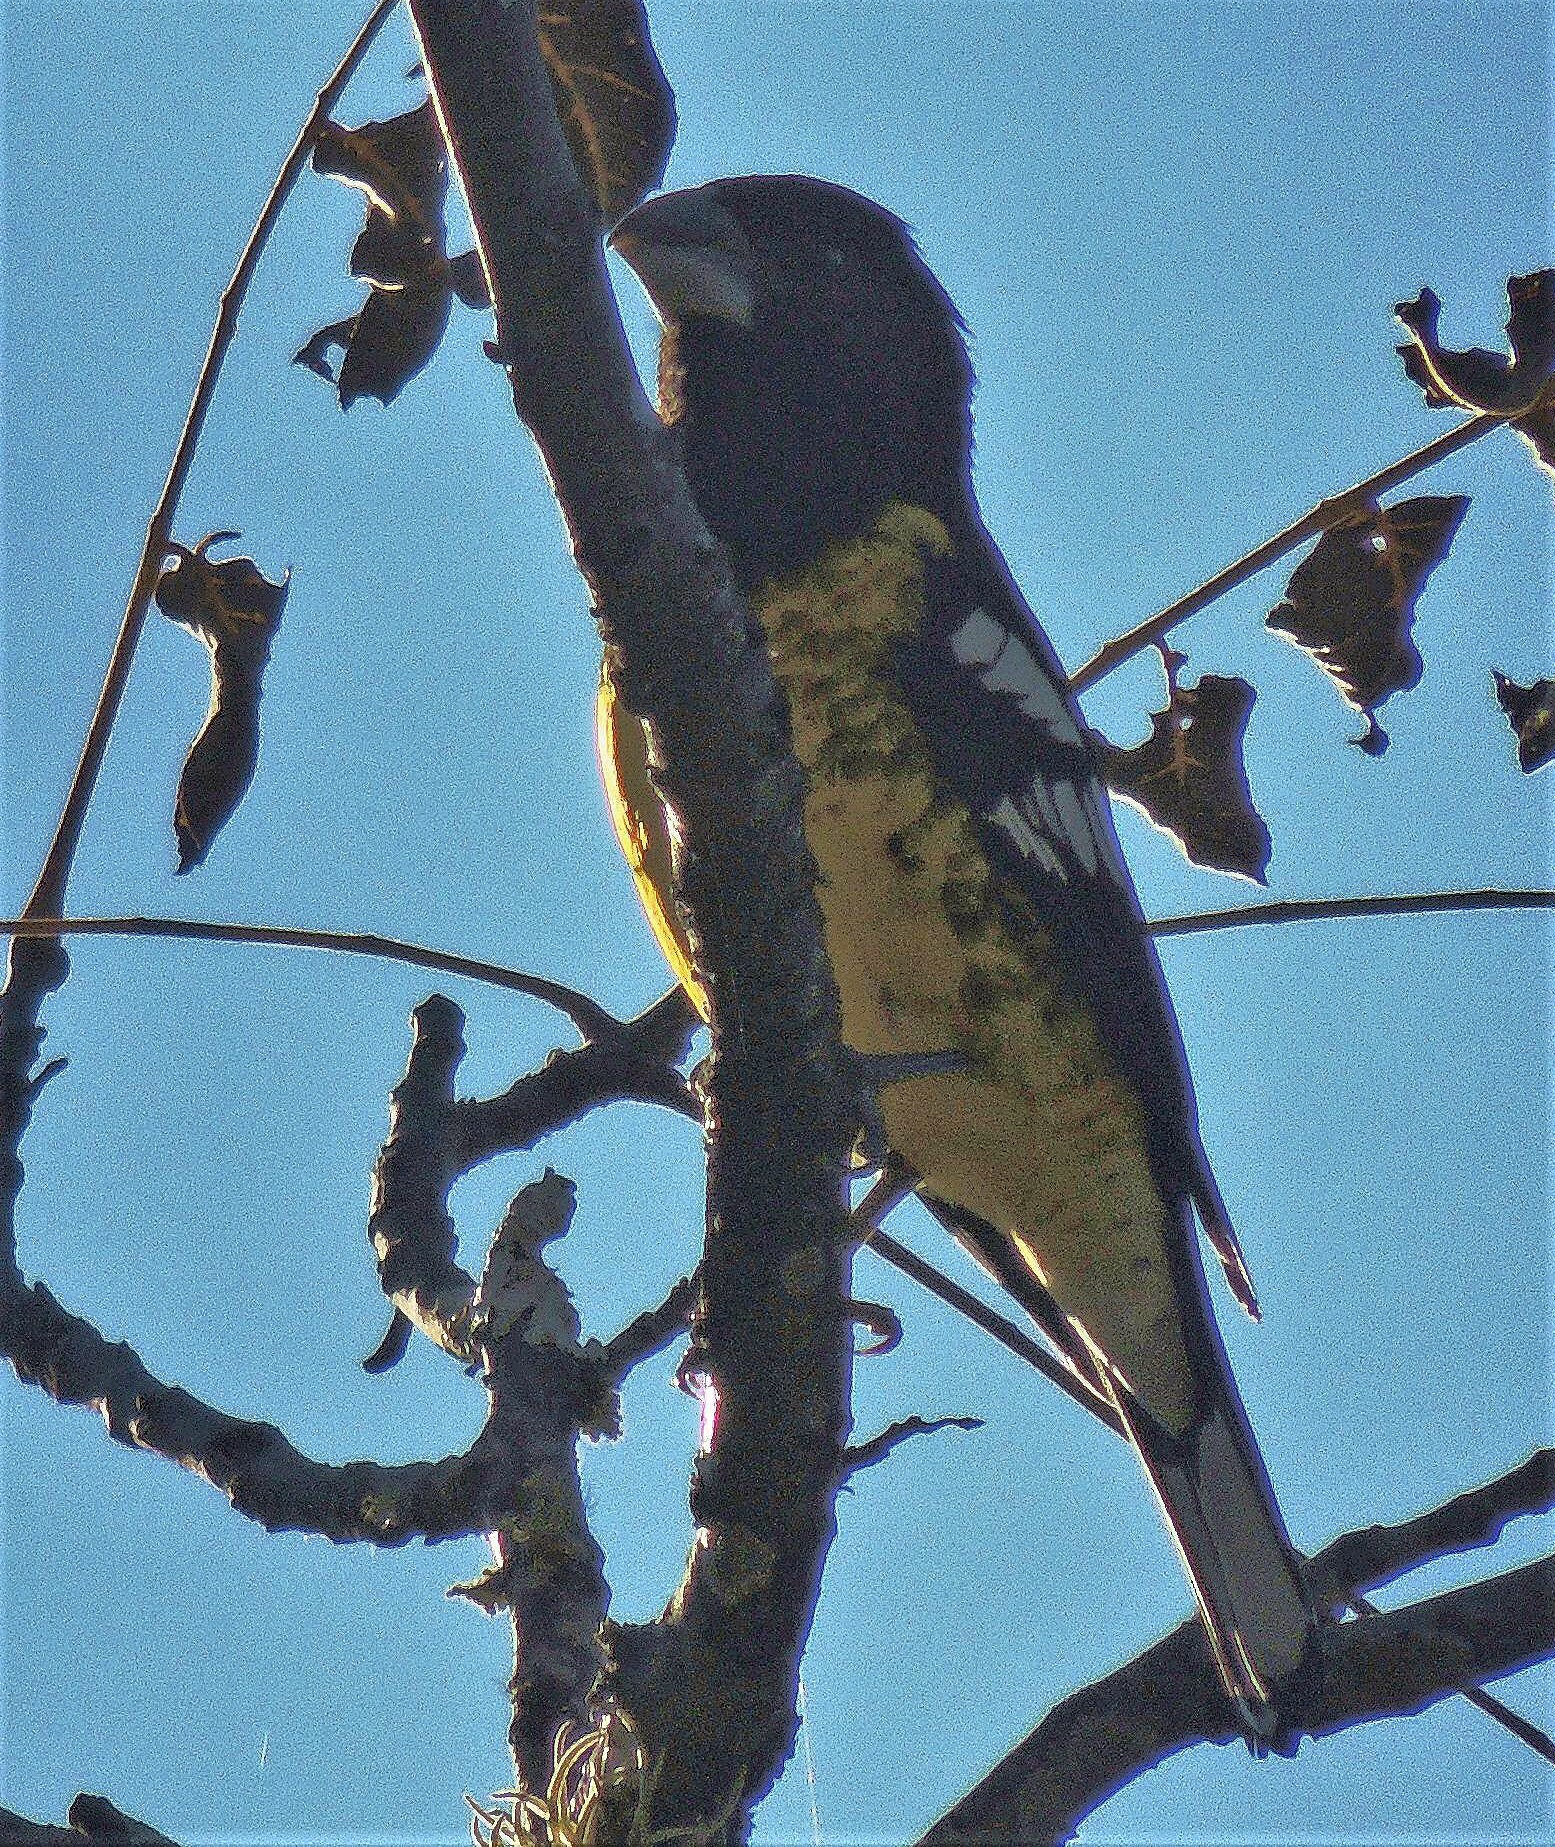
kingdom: Animalia
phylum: Chordata
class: Aves
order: Passeriformes
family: Cardinalidae
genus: Pheucticus
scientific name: Pheucticus aureoventris
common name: Black-backed grosbeak
